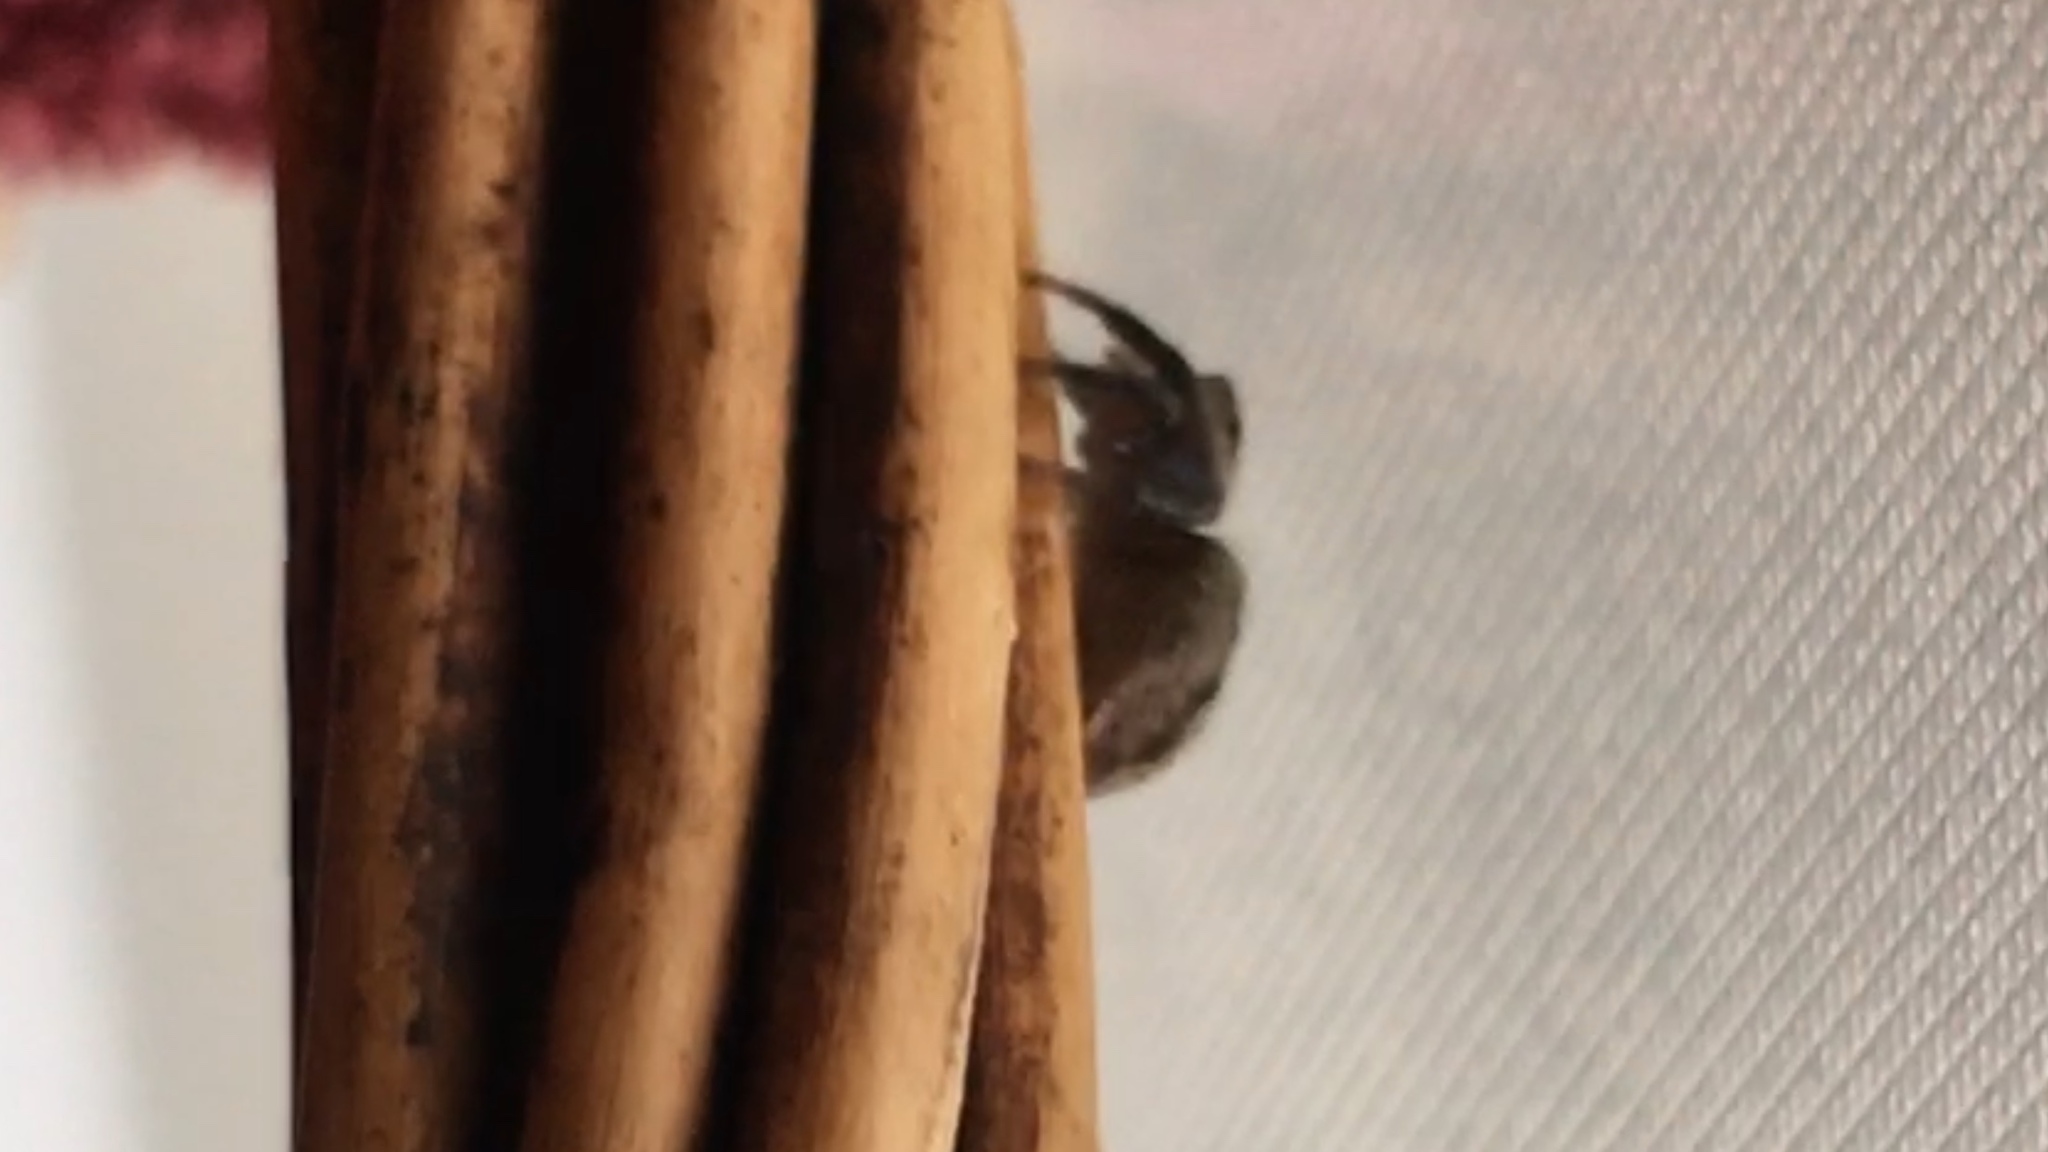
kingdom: Animalia
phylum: Arthropoda
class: Arachnida
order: Araneae
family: Salticidae
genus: Hasarius
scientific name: Hasarius adansoni
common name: Jumping spider
